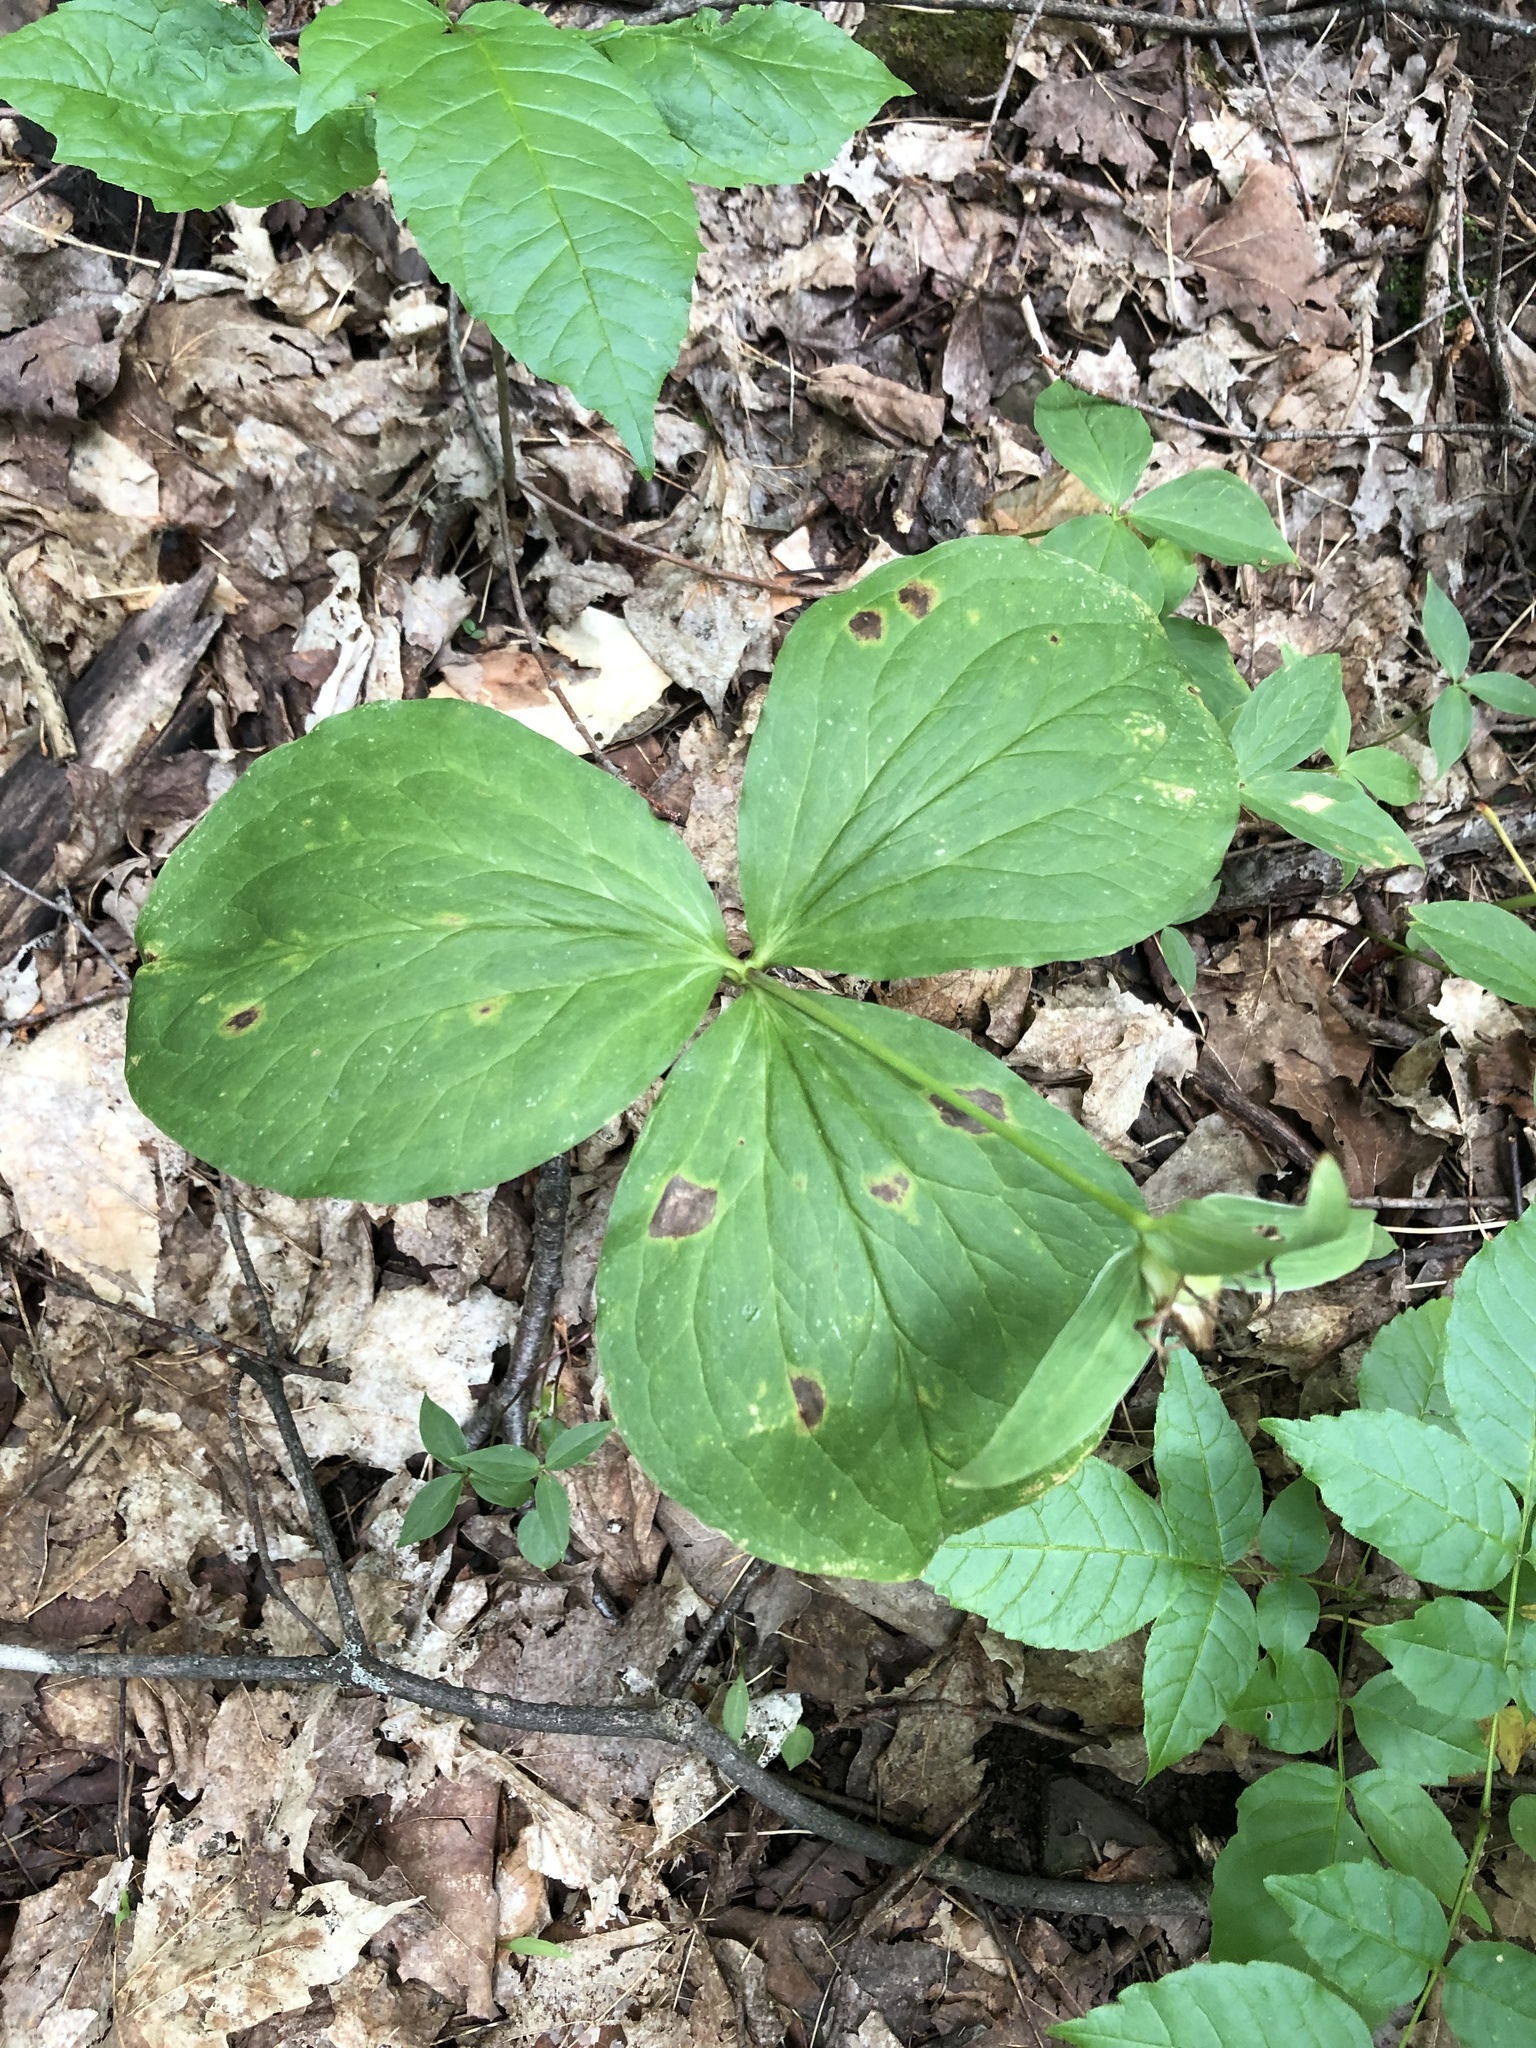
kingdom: Plantae
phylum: Tracheophyta
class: Liliopsida
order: Liliales
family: Melanthiaceae
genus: Trillium
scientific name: Trillium grandiflorum
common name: Great white trillium
